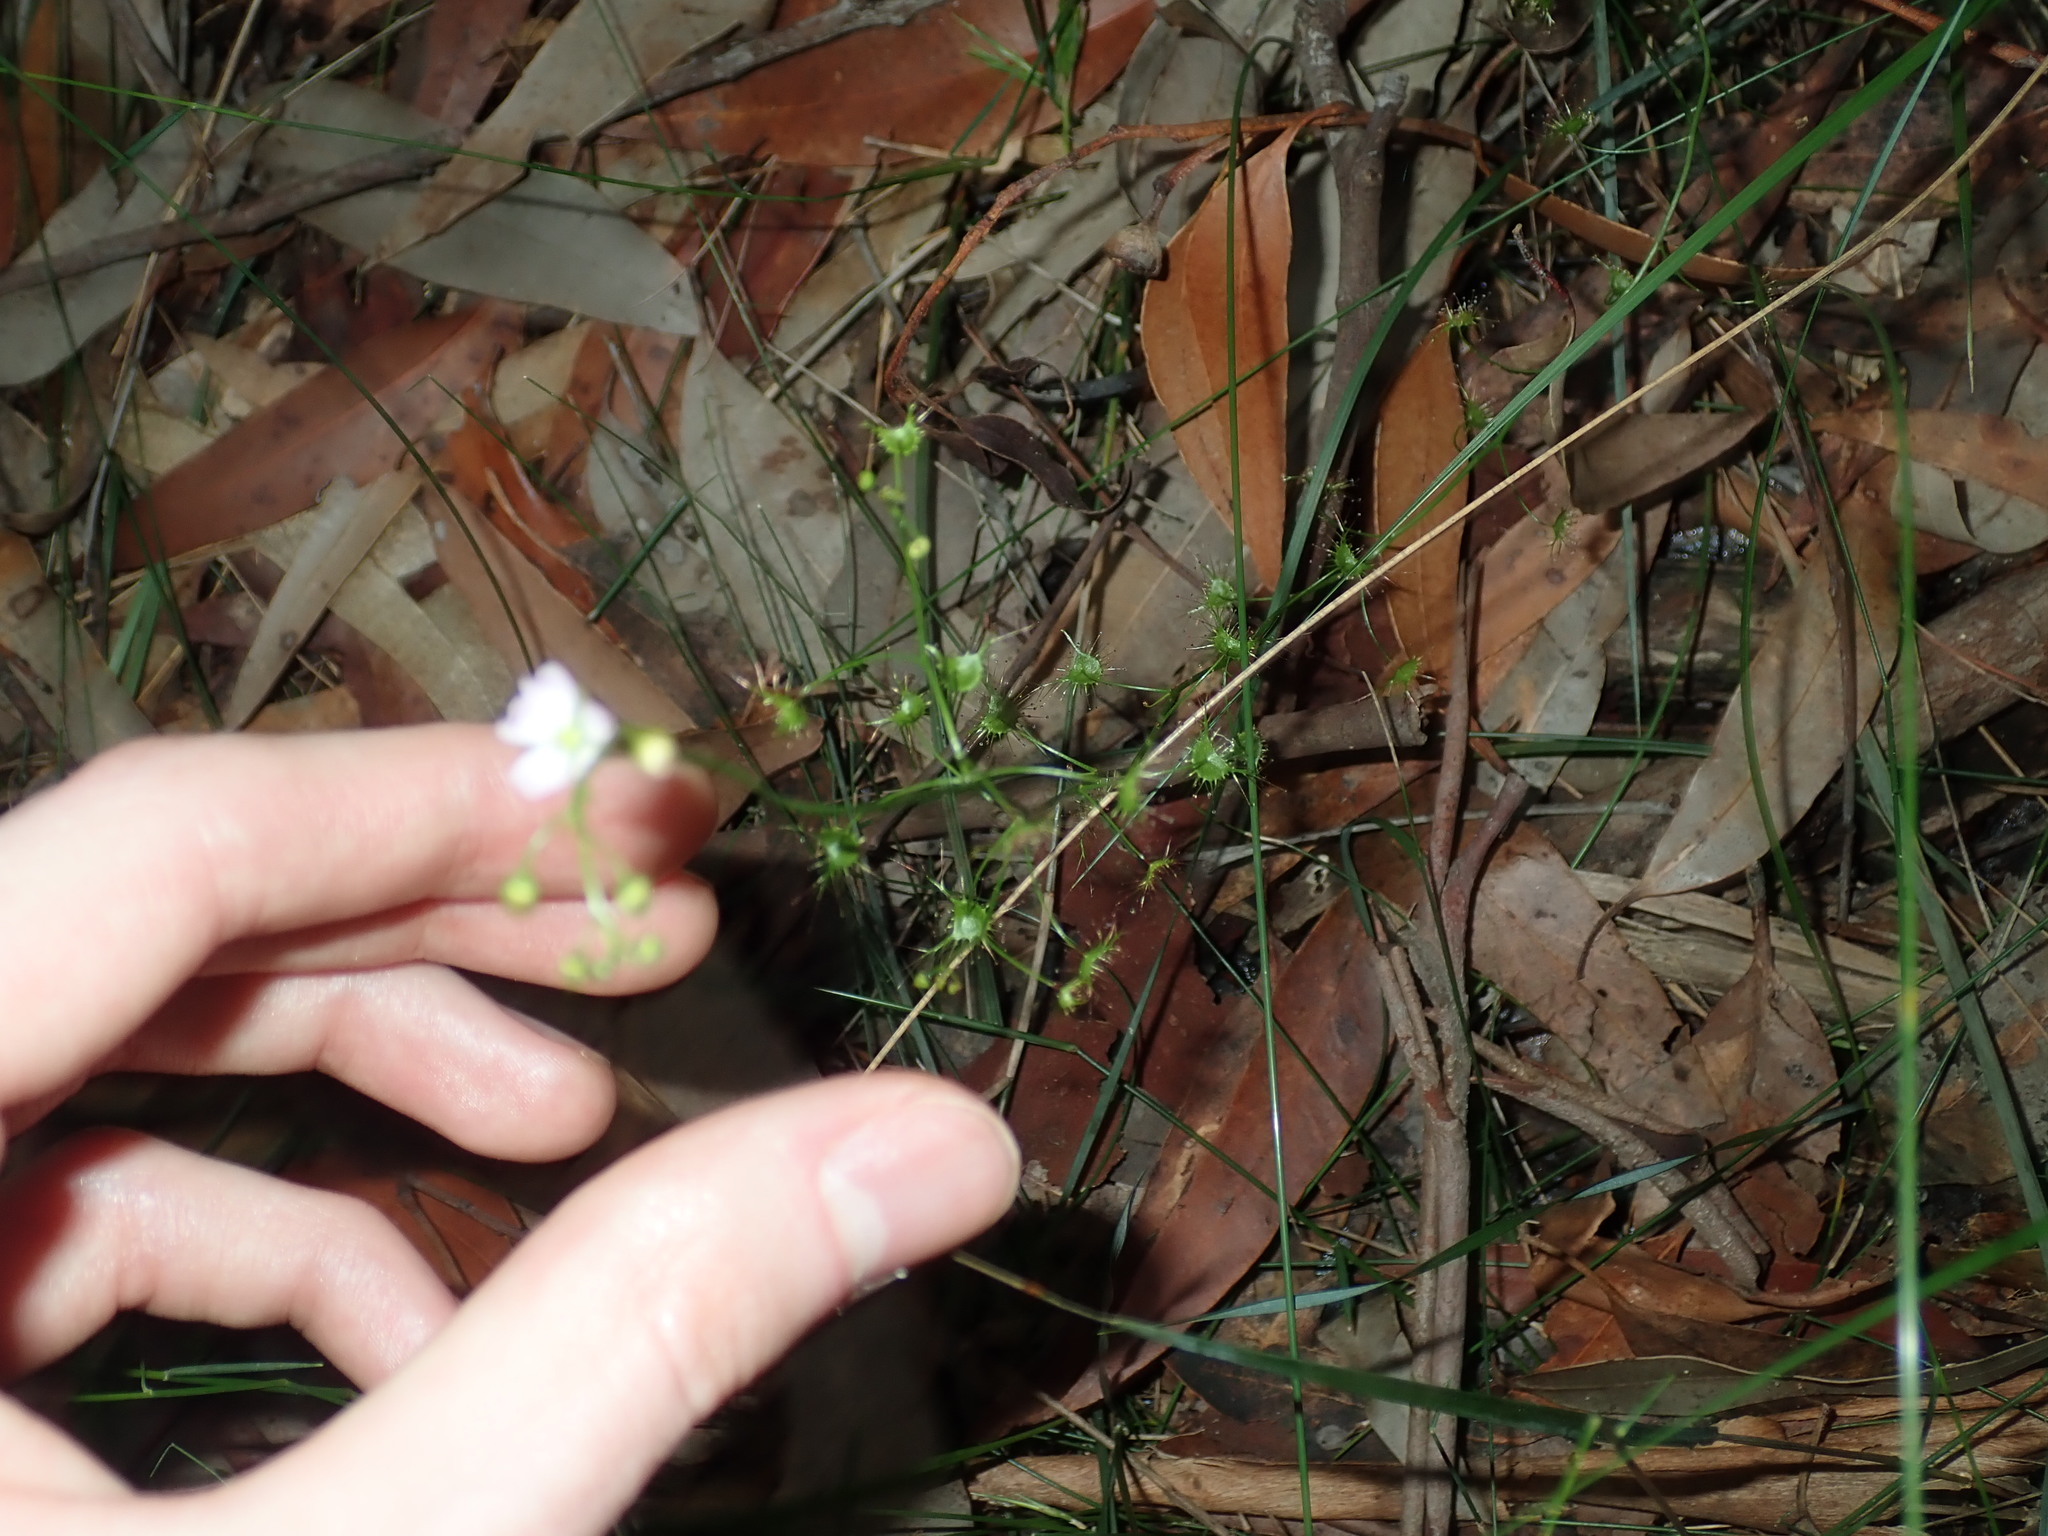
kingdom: Plantae
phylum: Tracheophyta
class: Magnoliopsida
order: Caryophyllales
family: Droseraceae
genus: Drosera
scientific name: Drosera peltata
